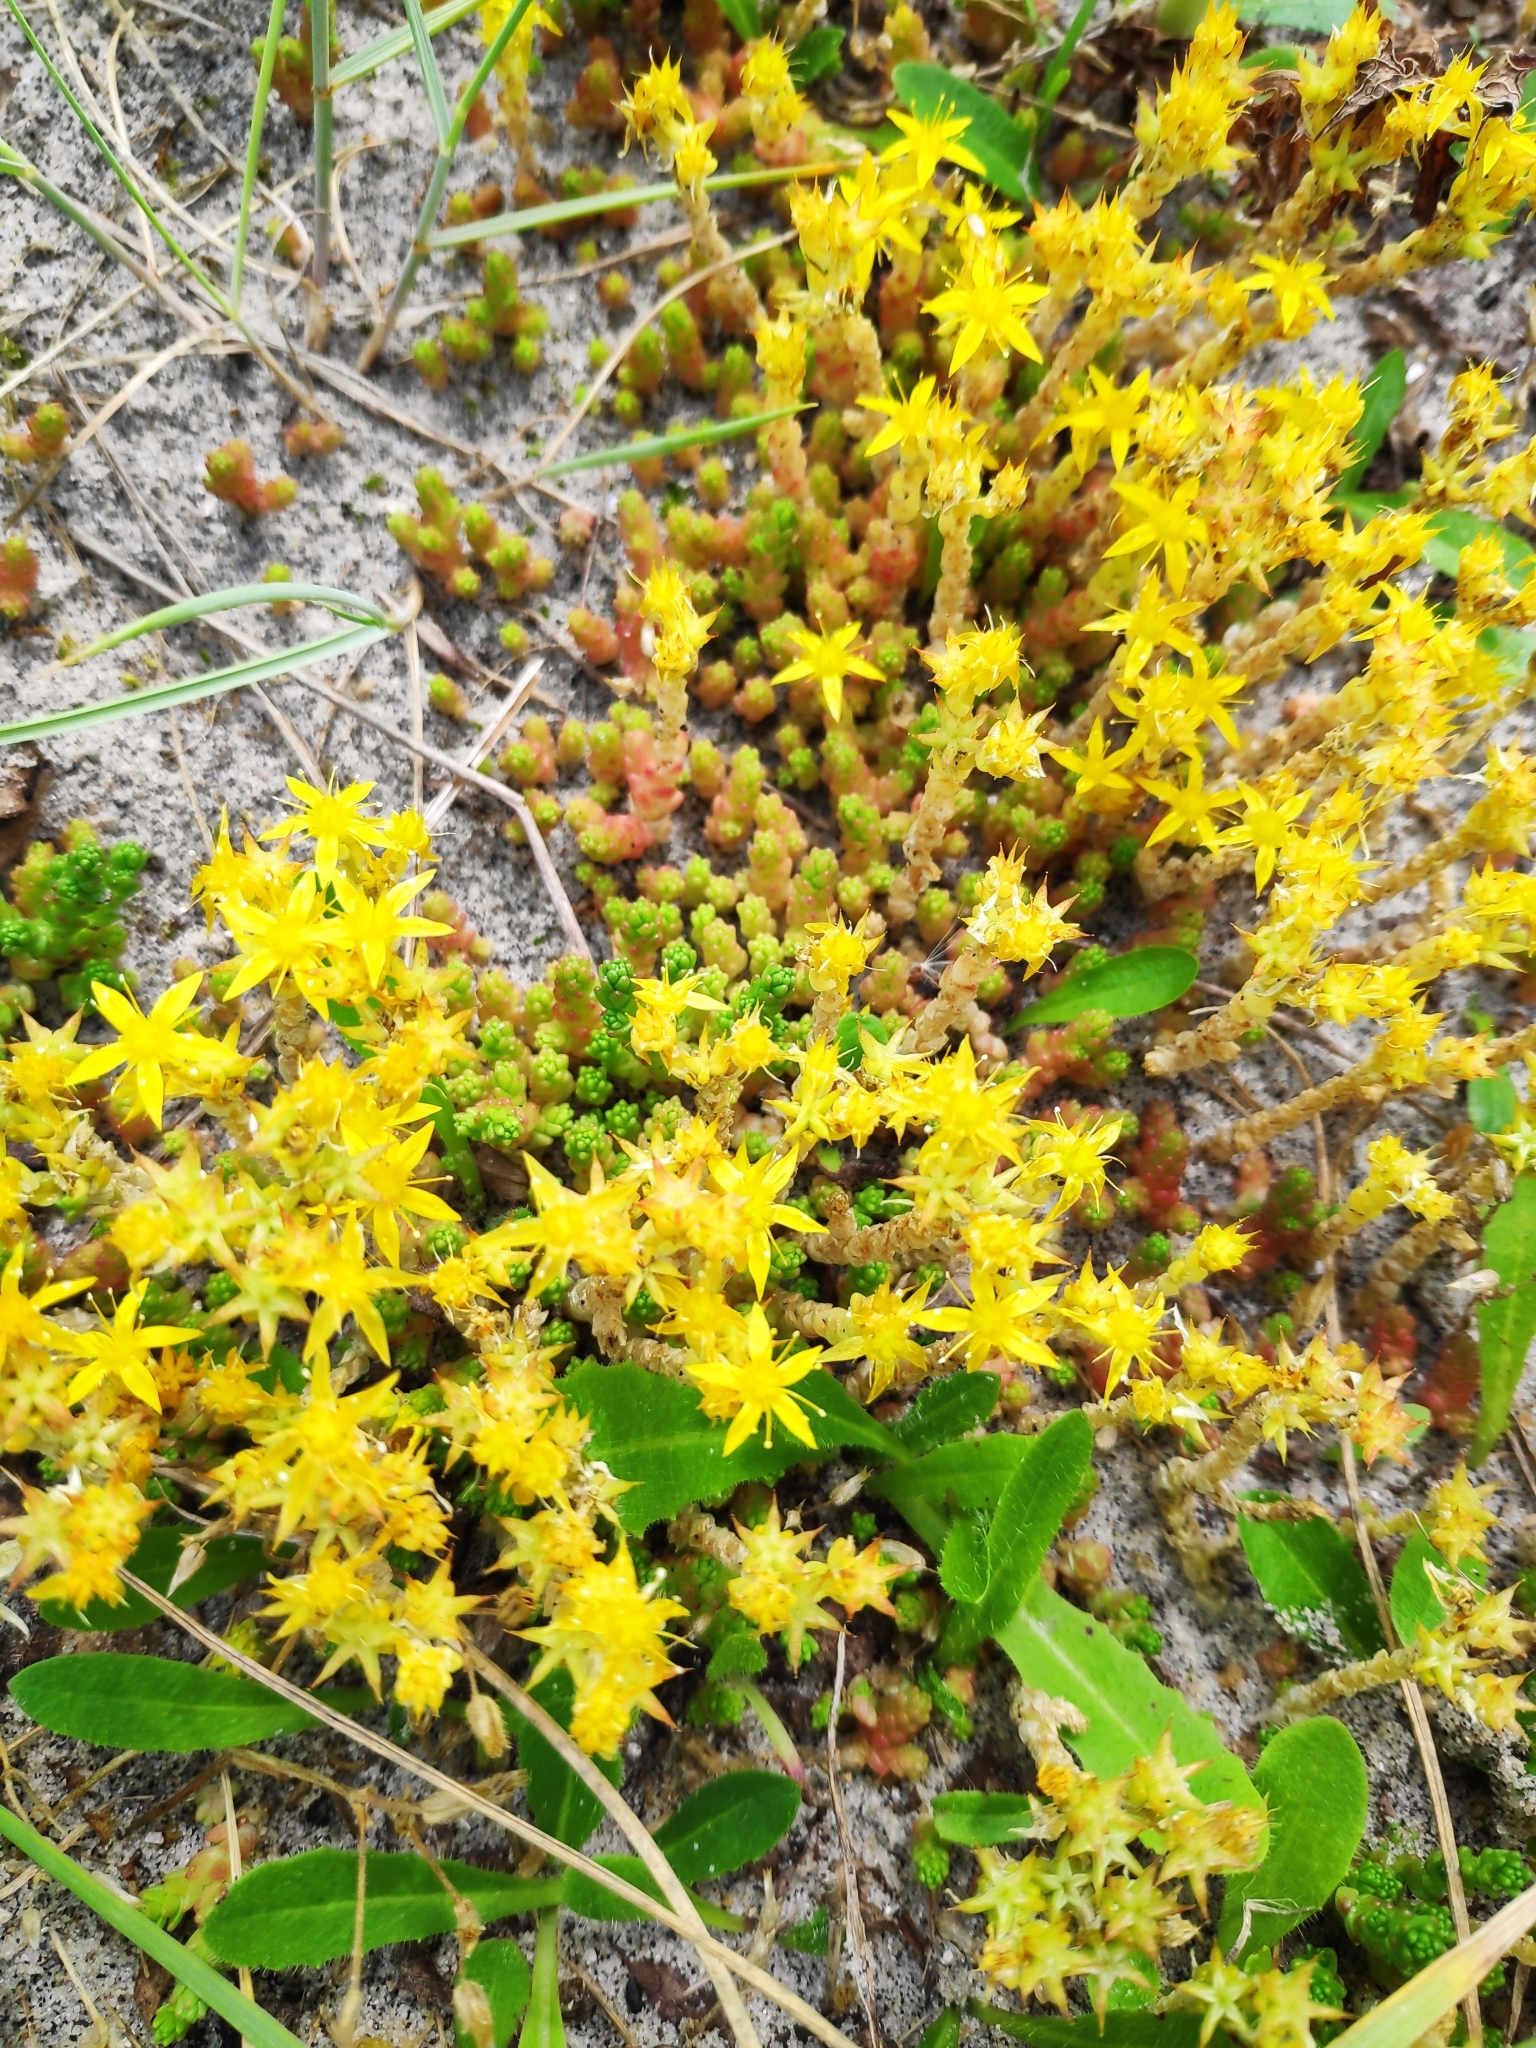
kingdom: Plantae
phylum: Tracheophyta
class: Magnoliopsida
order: Saxifragales
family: Crassulaceae
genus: Sedum
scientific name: Sedum acre
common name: Biting stonecrop
